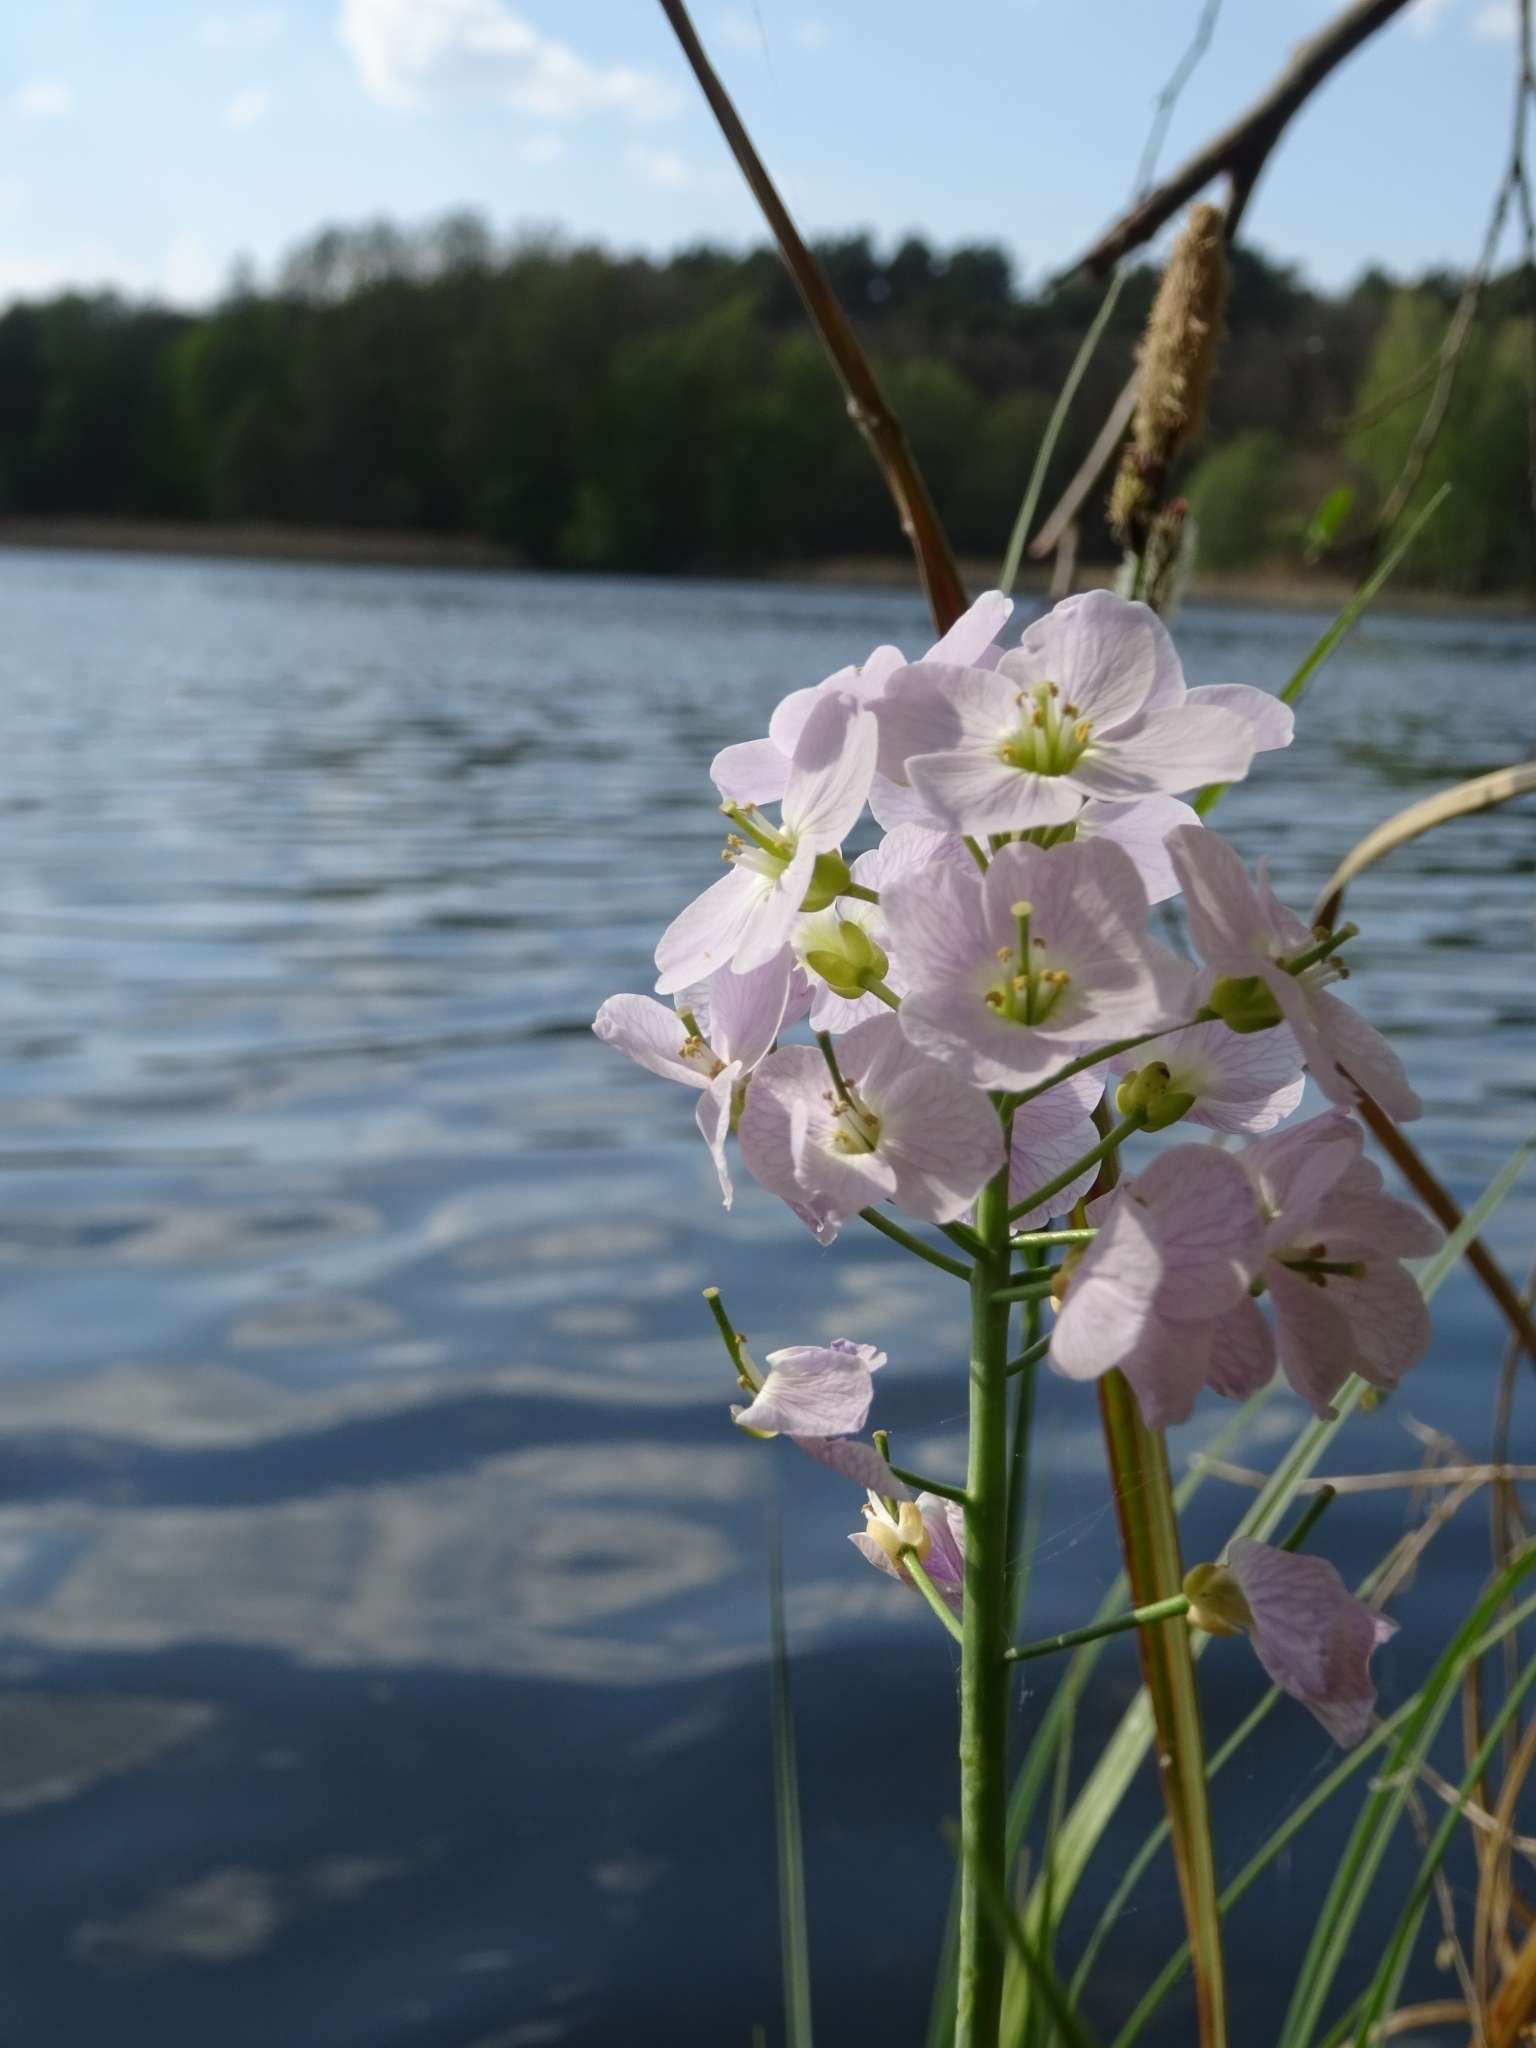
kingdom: Plantae
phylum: Tracheophyta
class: Magnoliopsida
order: Brassicales
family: Brassicaceae
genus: Cardamine
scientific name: Cardamine pratensis
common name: Cuckoo flower
